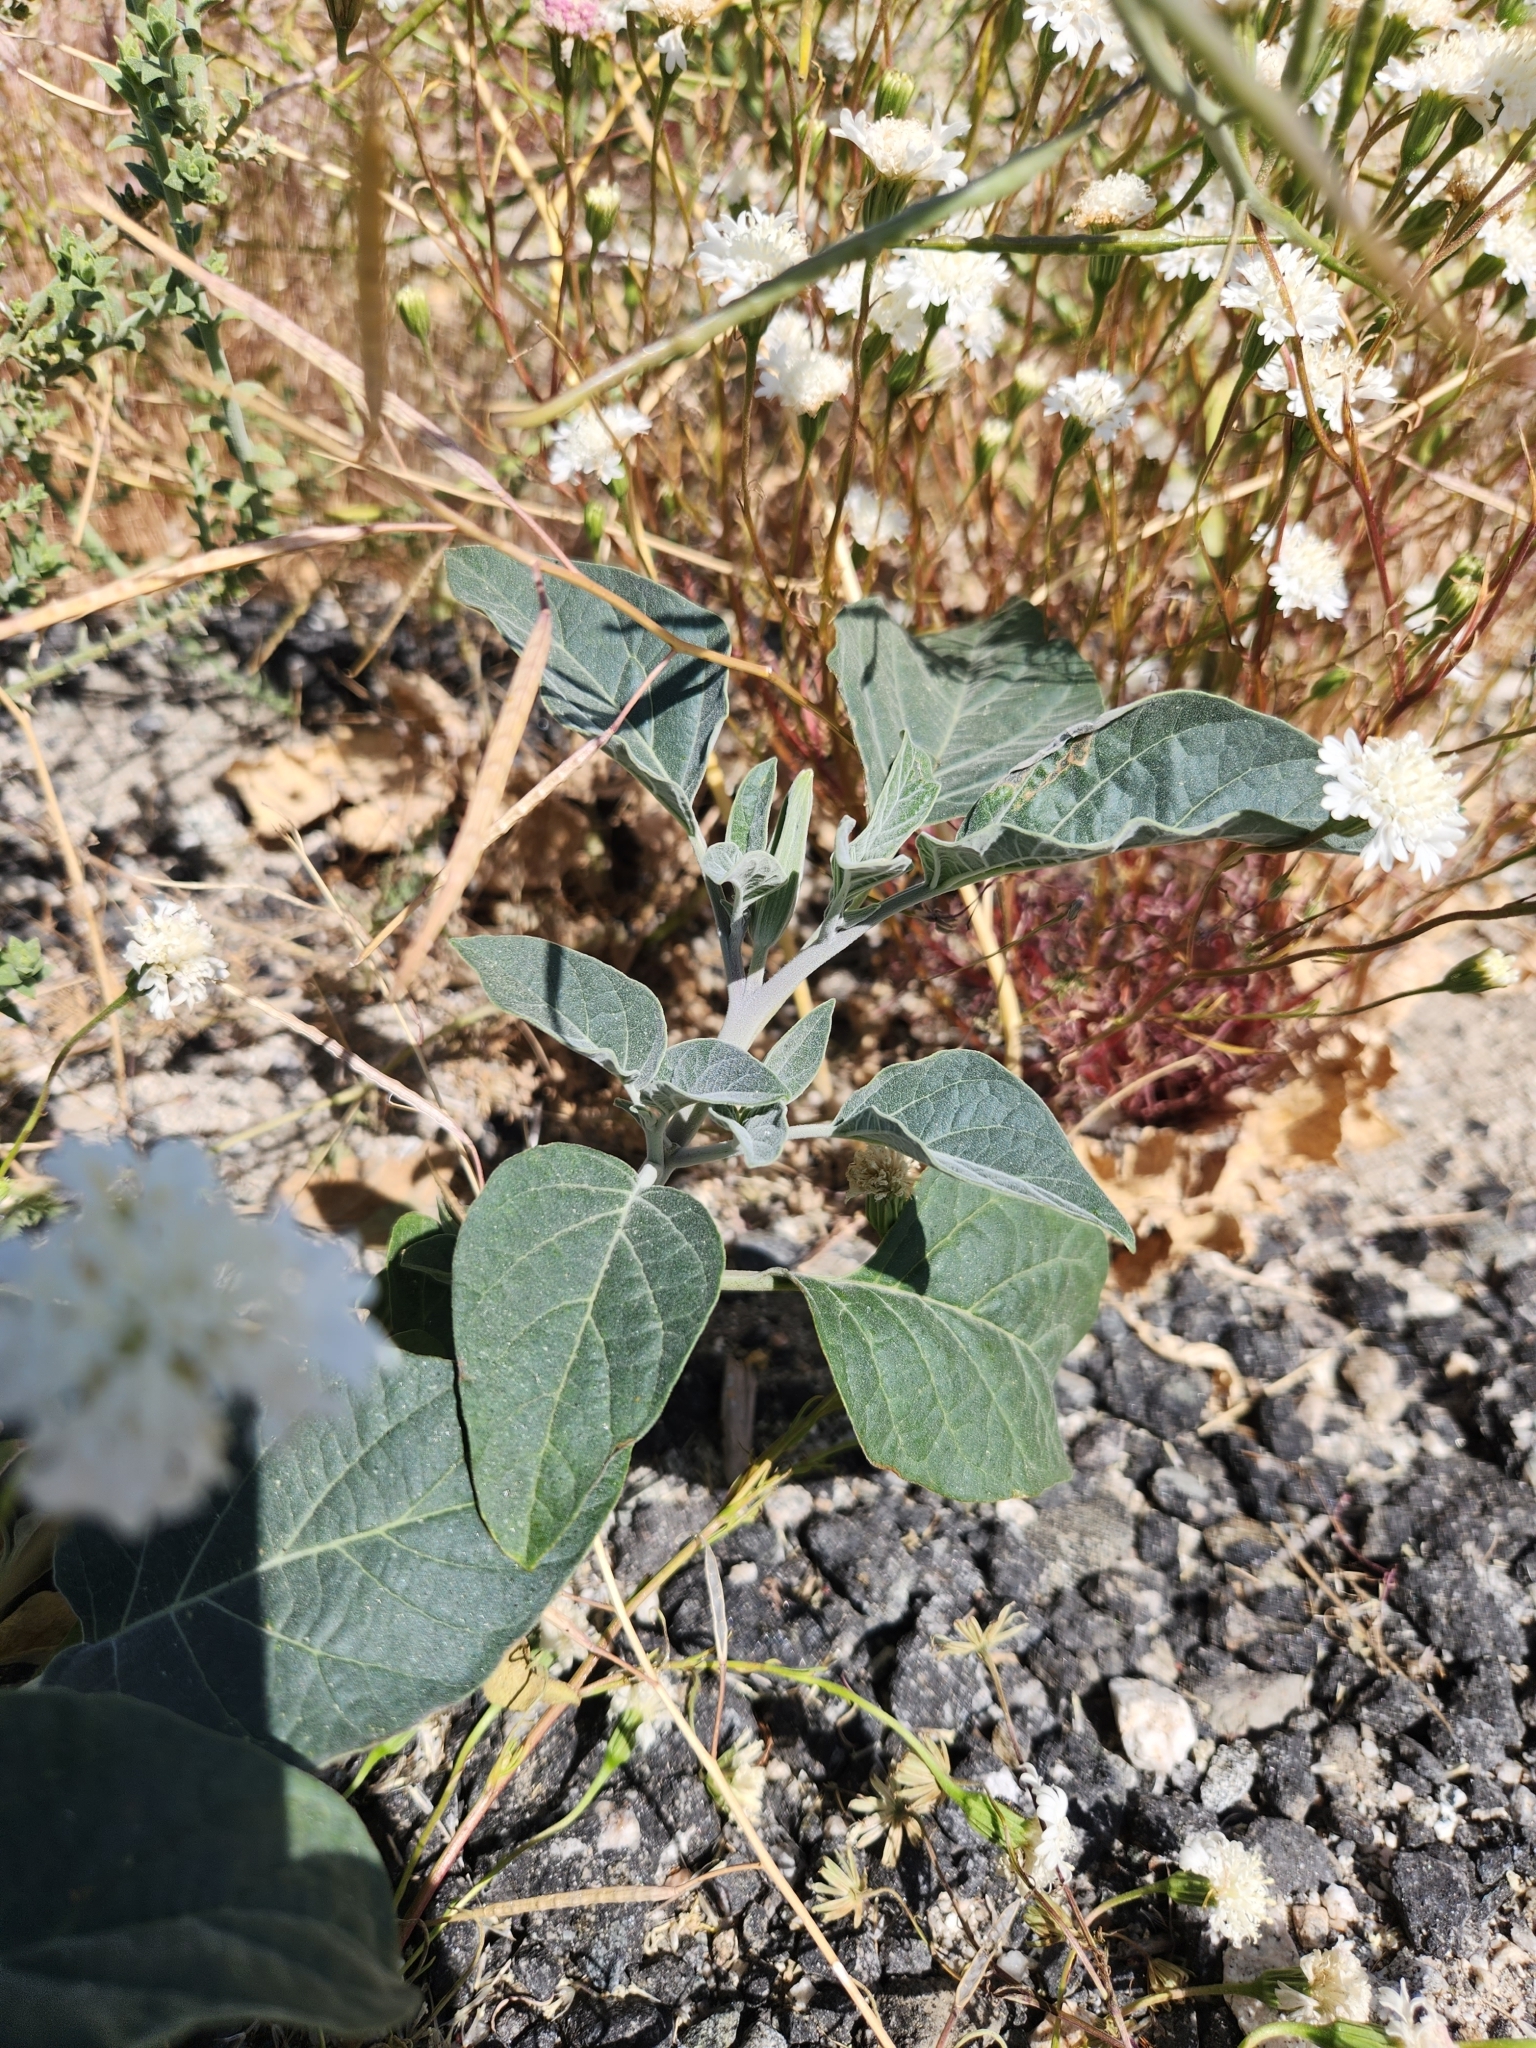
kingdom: Plantae
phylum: Tracheophyta
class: Magnoliopsida
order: Solanales
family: Solanaceae
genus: Datura
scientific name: Datura wrightii
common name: Sacred thorn-apple
